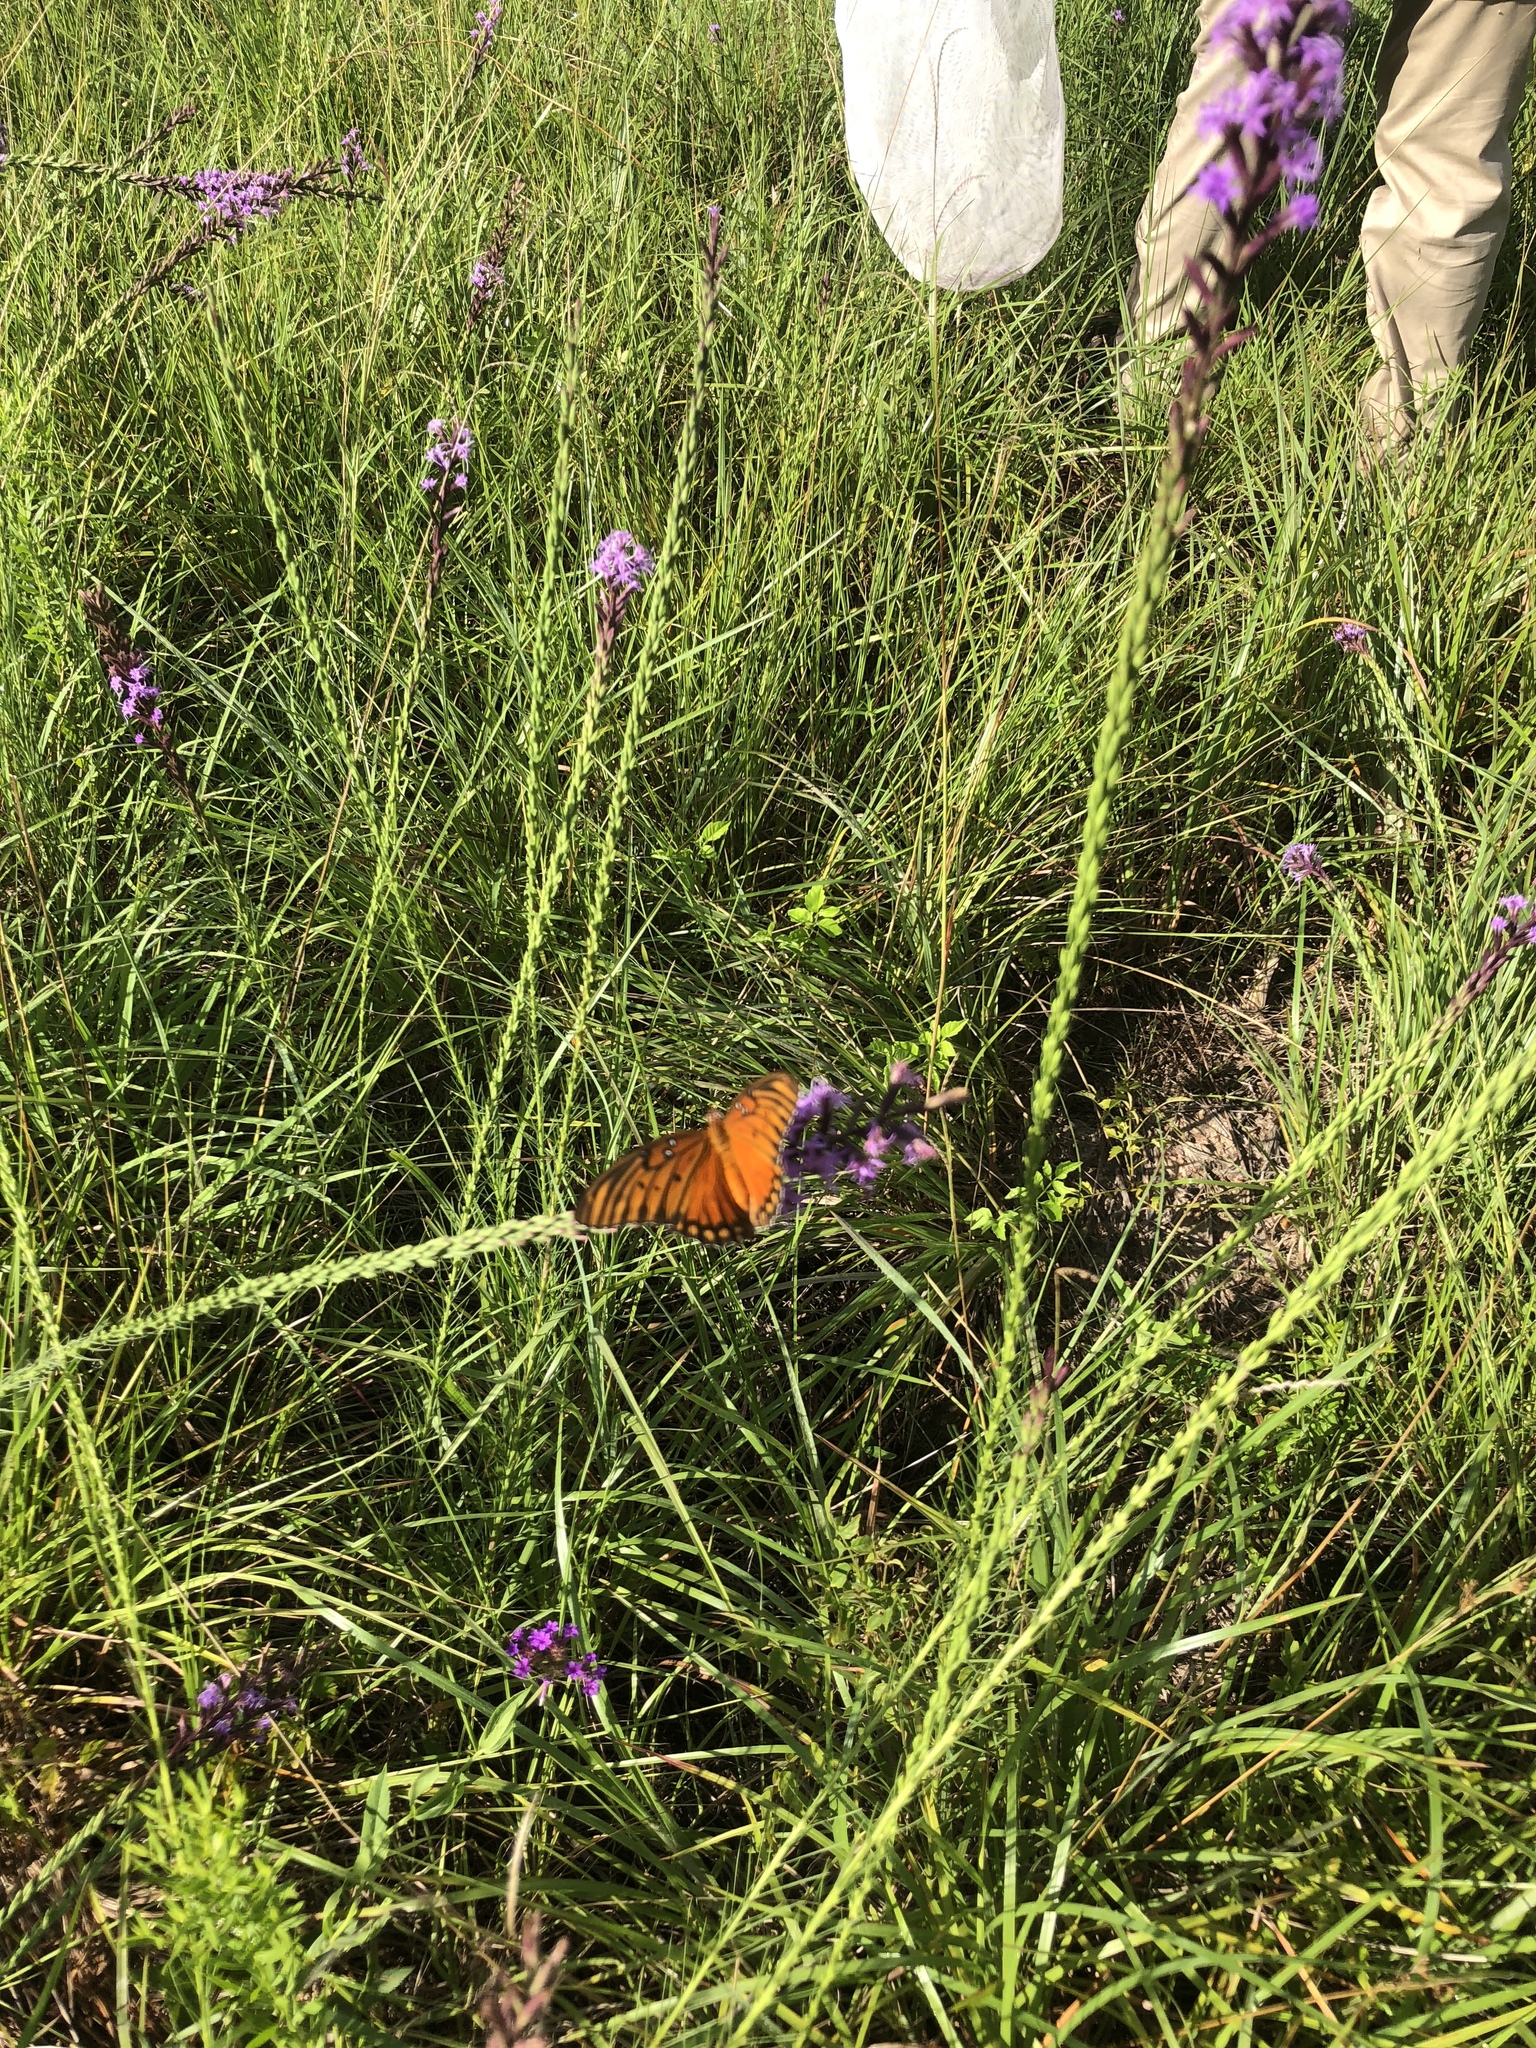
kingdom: Animalia
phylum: Arthropoda
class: Insecta
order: Lepidoptera
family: Nymphalidae
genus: Dione
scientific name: Dione vanillae
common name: Gulf fritillary
